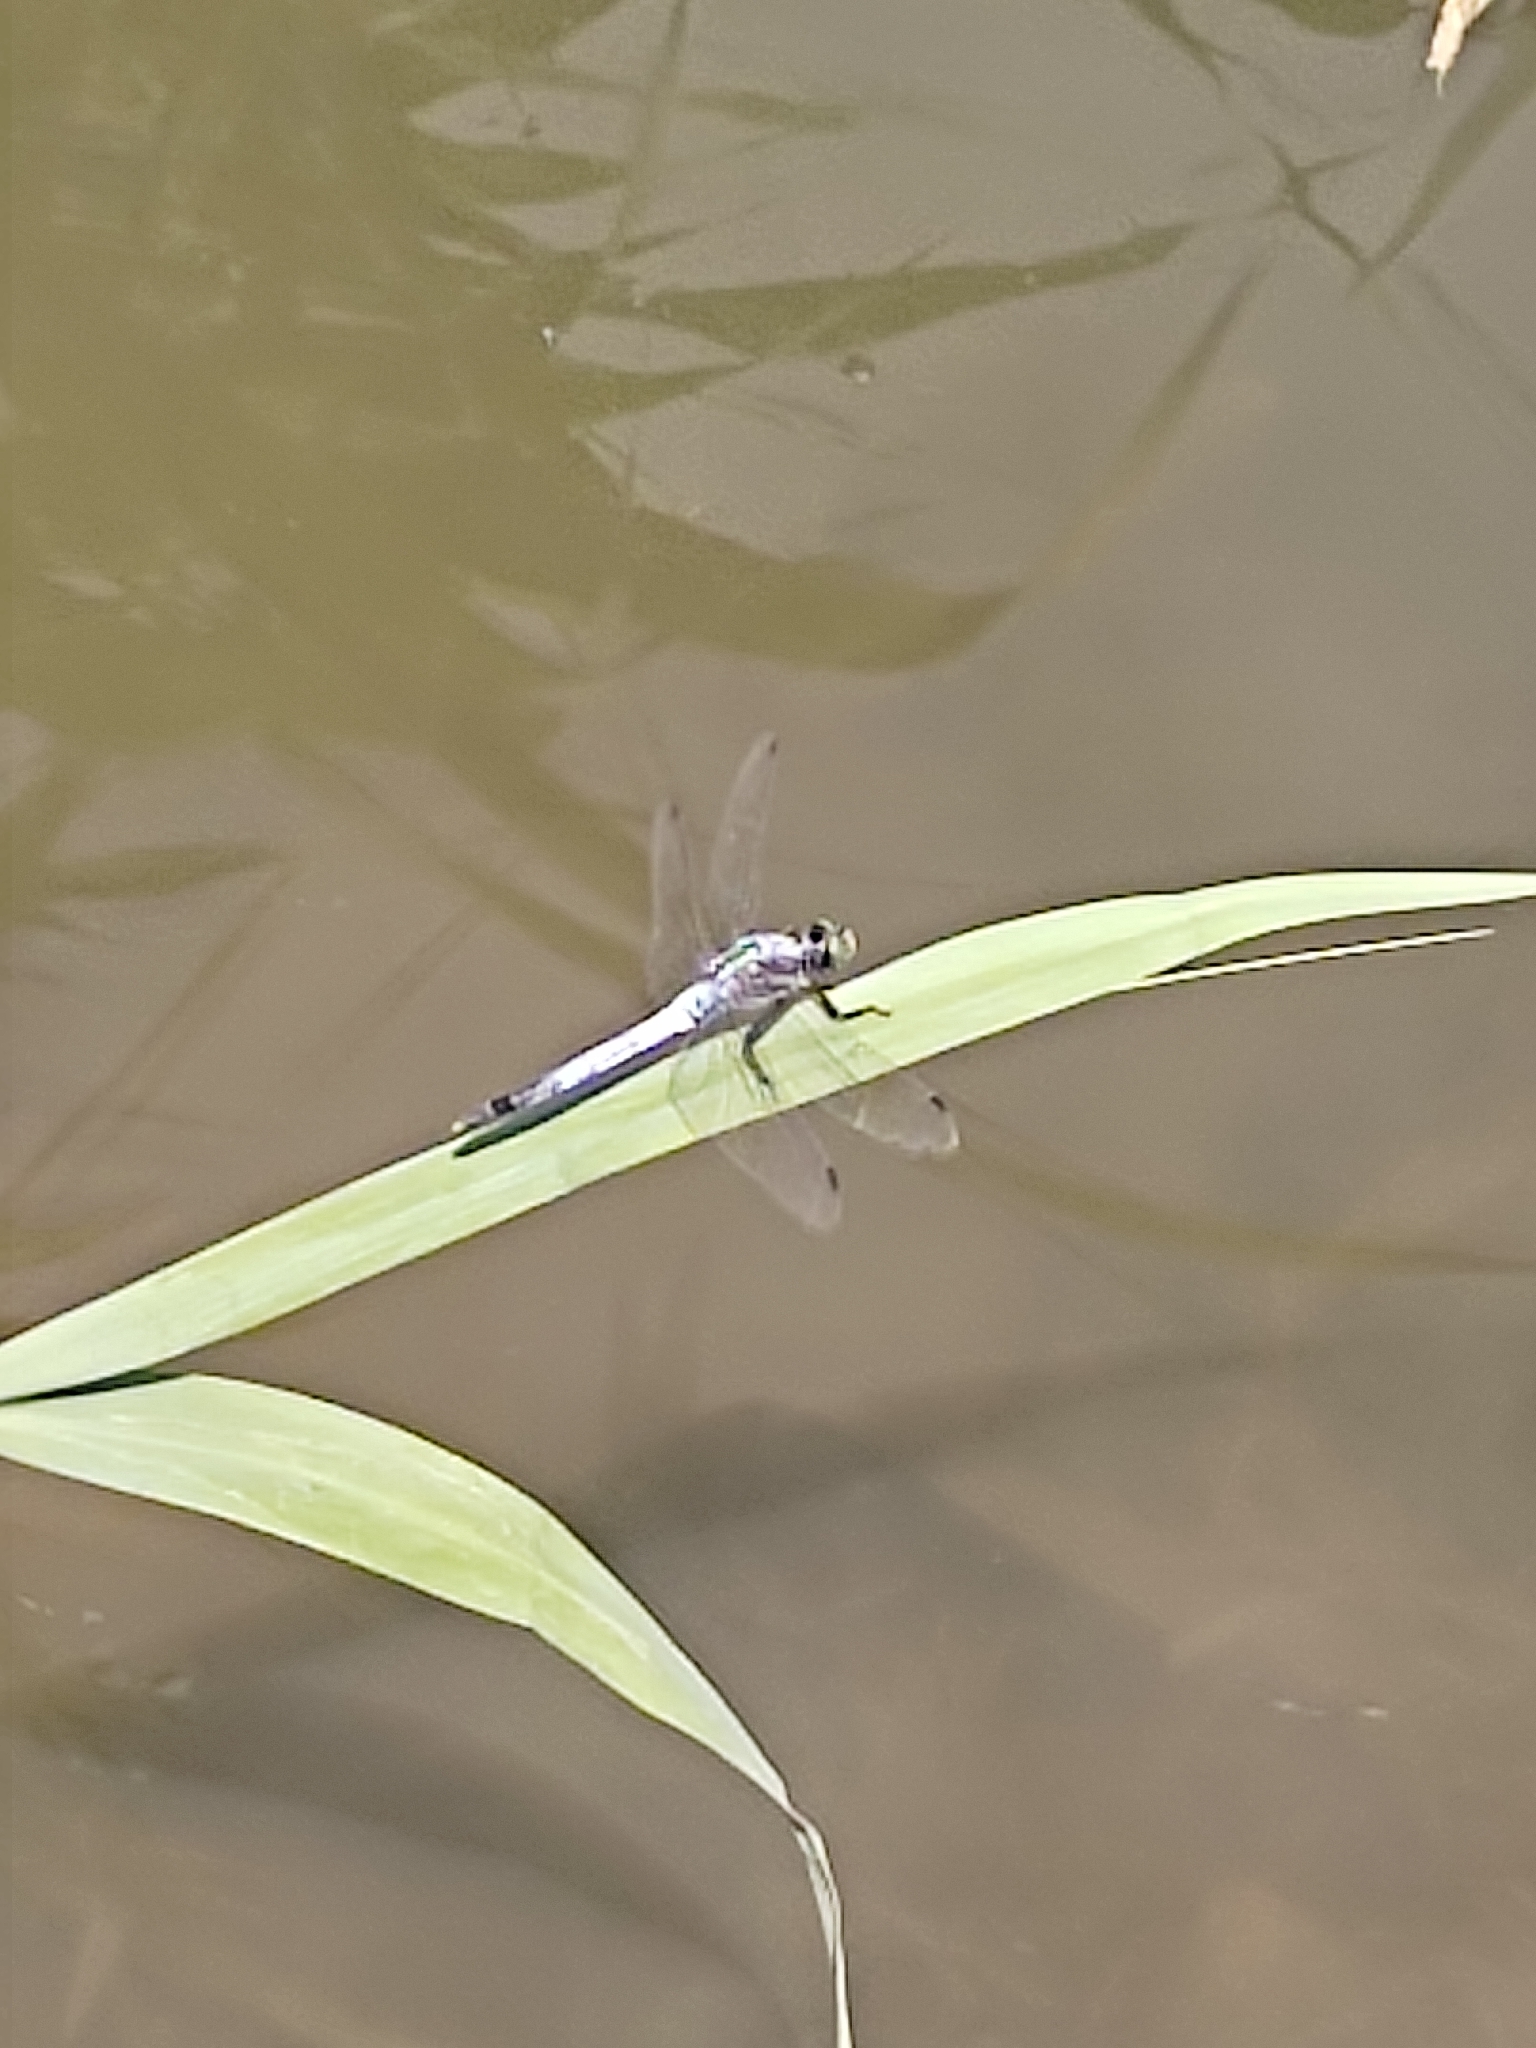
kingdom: Animalia
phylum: Arthropoda
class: Insecta
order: Odonata
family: Libellulidae
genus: Orthetrum
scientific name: Orthetrum albistylum
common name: White-tailed skimmer
